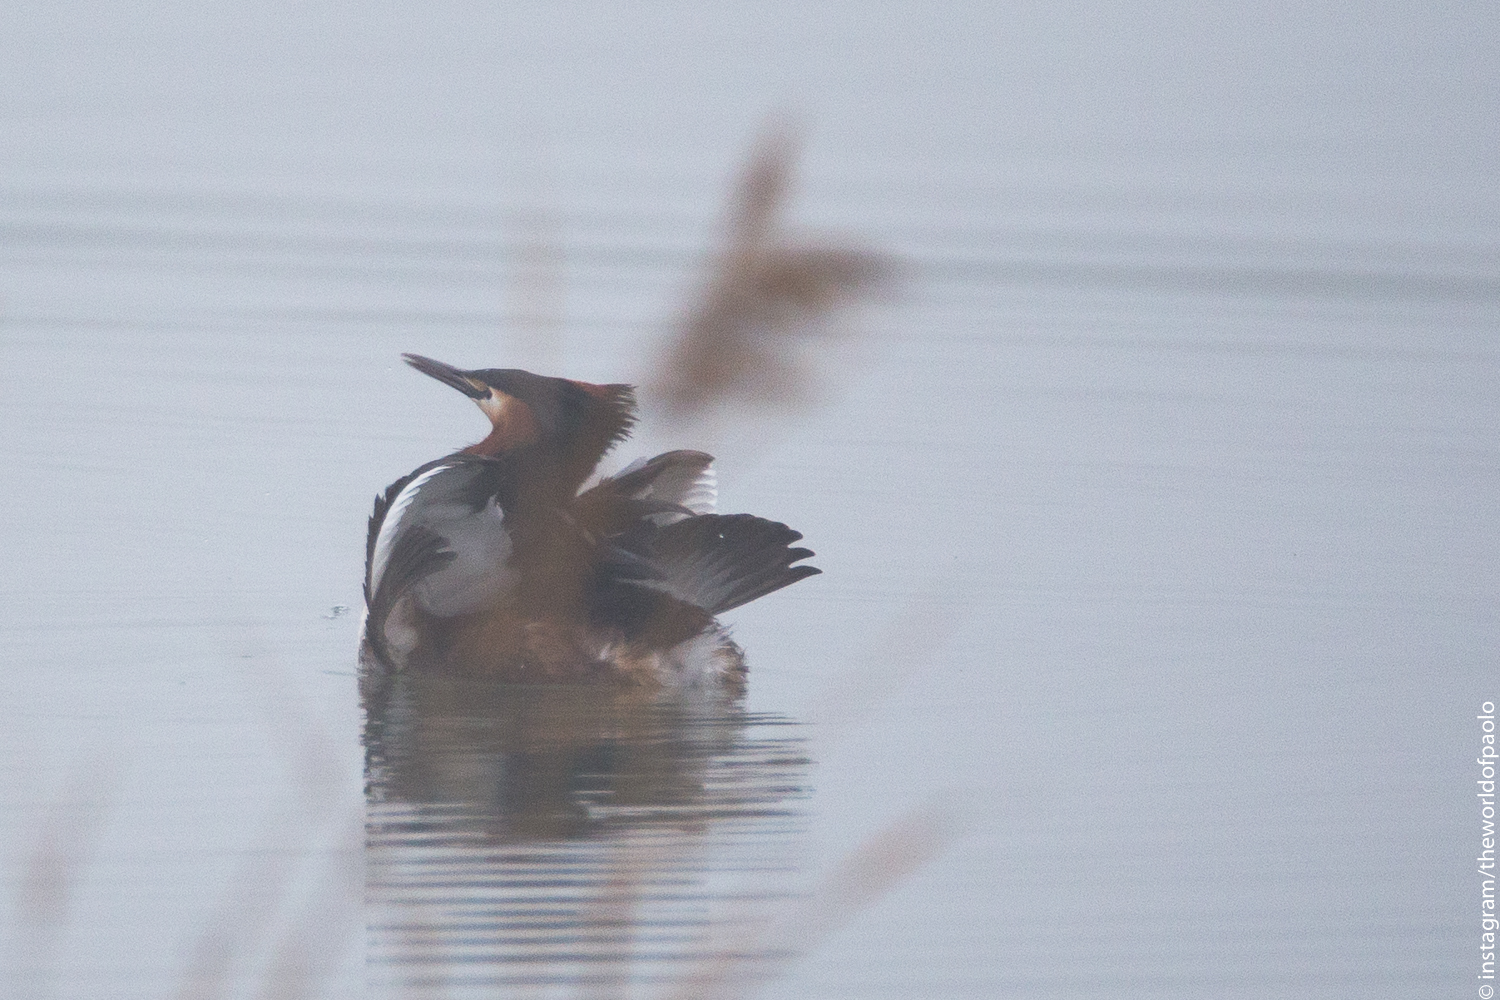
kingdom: Animalia
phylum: Chordata
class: Aves
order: Podicipediformes
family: Podicipedidae
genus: Podiceps
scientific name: Podiceps cristatus
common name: Great crested grebe
